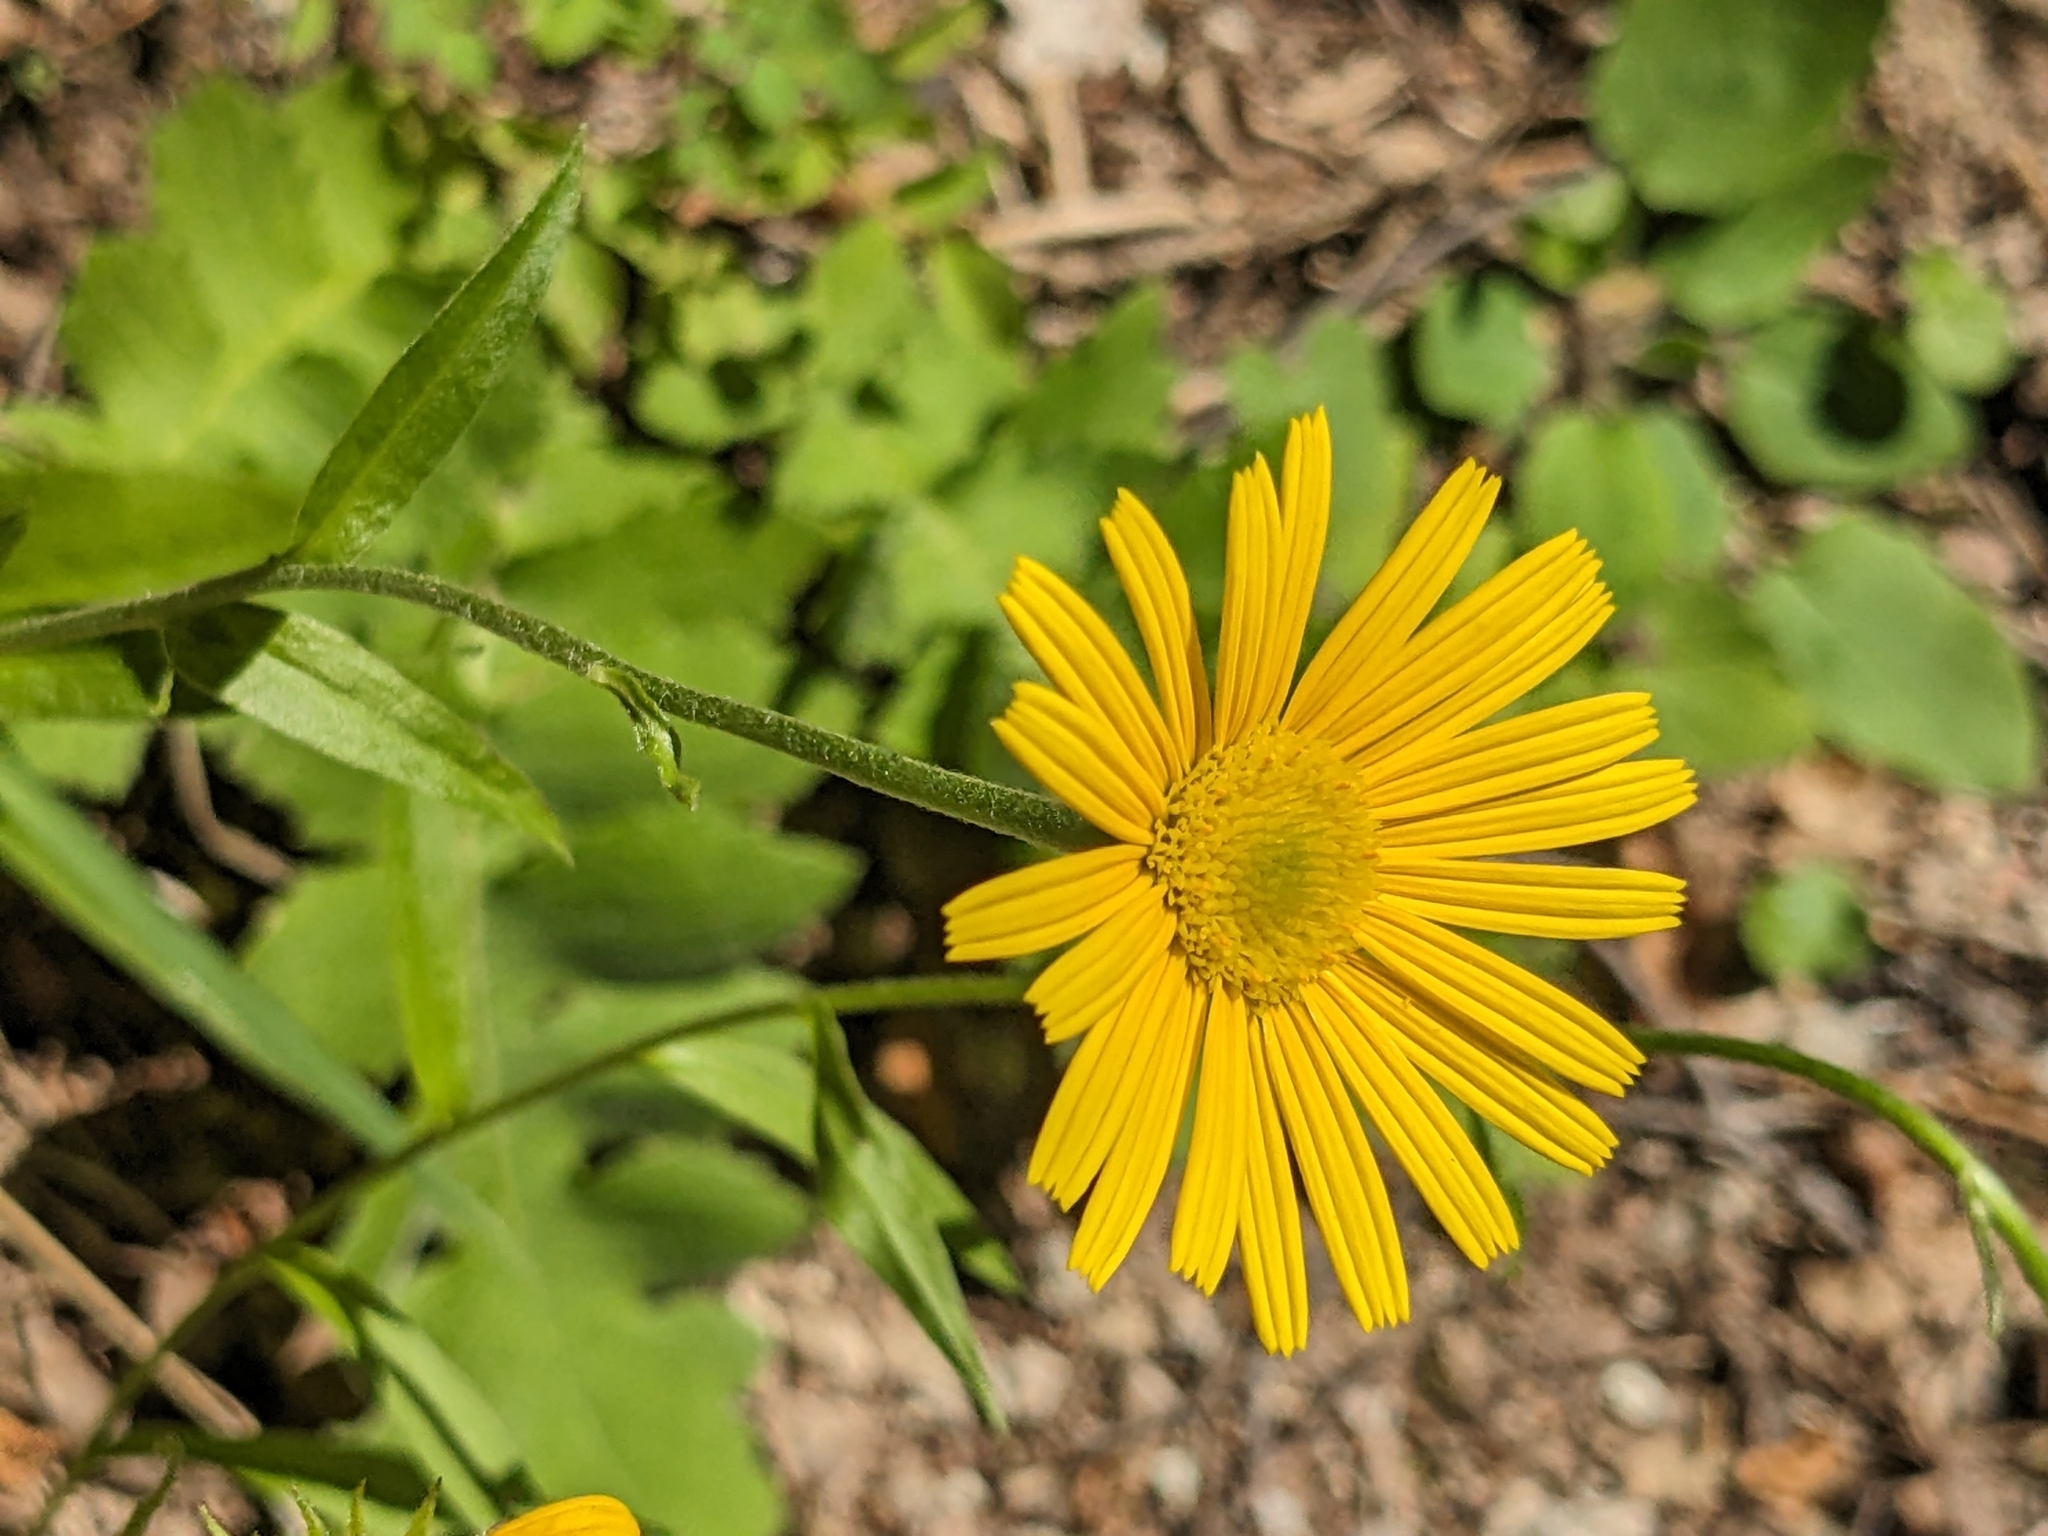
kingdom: Plantae
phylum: Tracheophyta
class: Magnoliopsida
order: Asterales
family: Asteraceae
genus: Buphthalmum
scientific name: Buphthalmum salicifolium
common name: Willow-leaved yellow-oxeye
